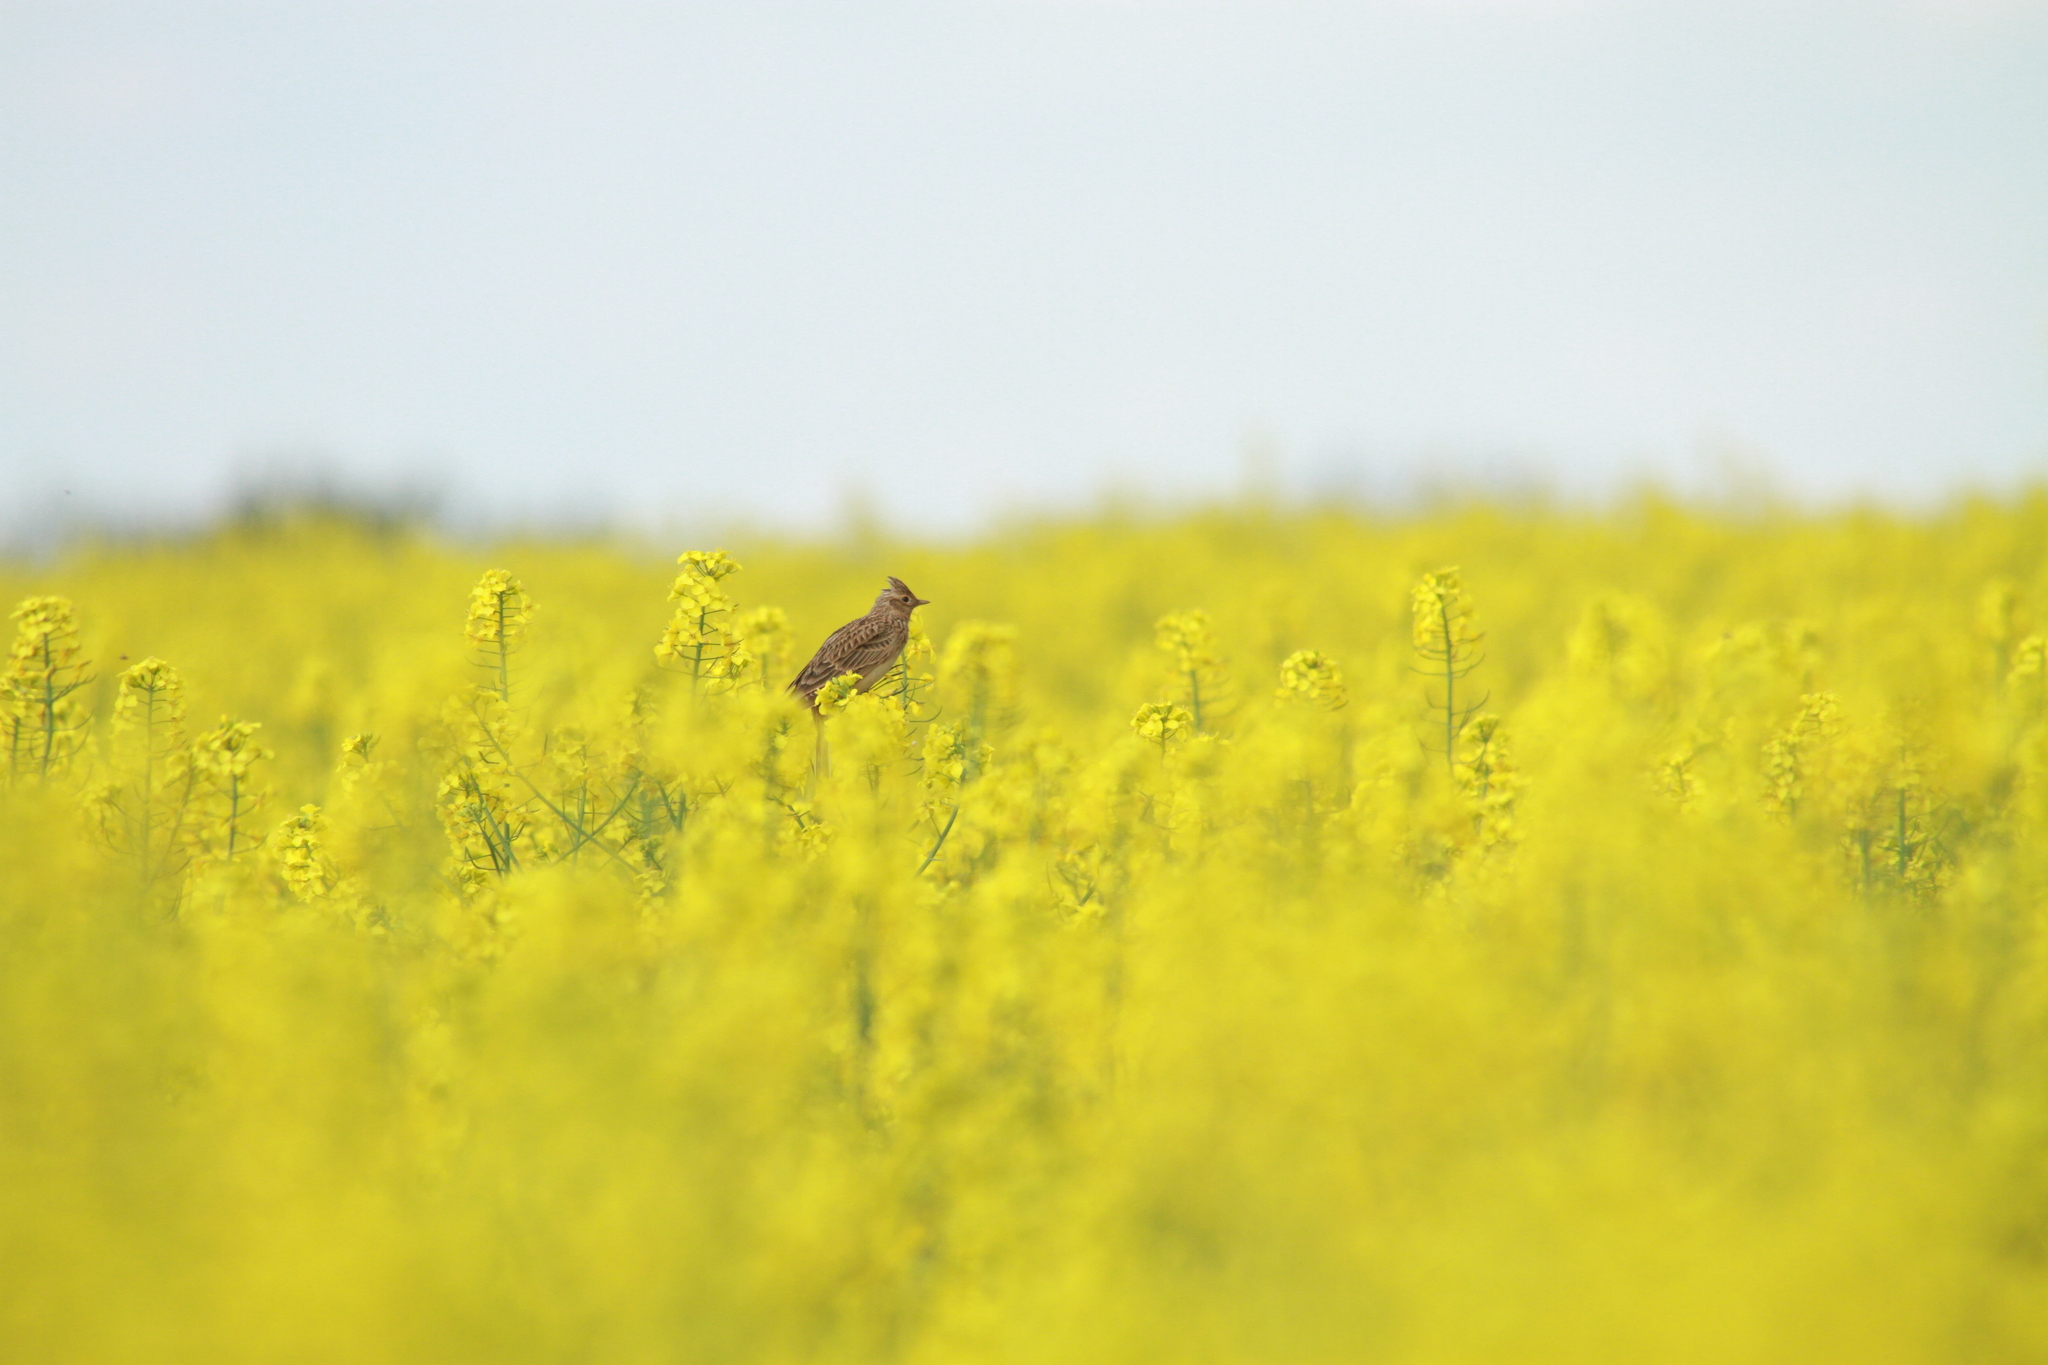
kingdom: Animalia
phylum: Chordata
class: Aves
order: Passeriformes
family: Alaudidae
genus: Alauda
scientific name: Alauda arvensis
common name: Eurasian skylark
